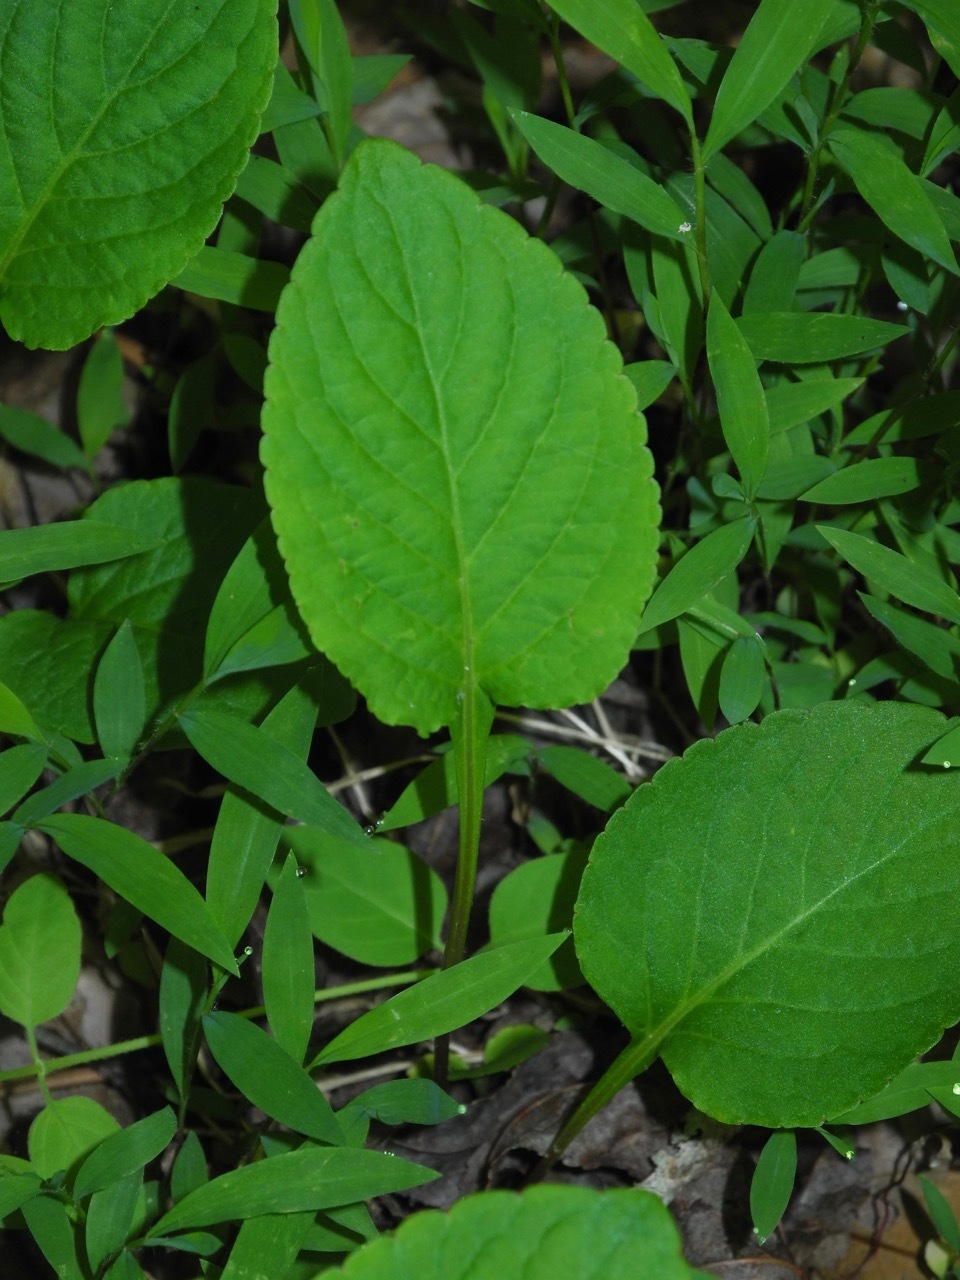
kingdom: Plantae
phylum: Tracheophyta
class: Magnoliopsida
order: Malpighiales
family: Violaceae
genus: Viola
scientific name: Viola primulifolia
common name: Primrose-leaf violet
